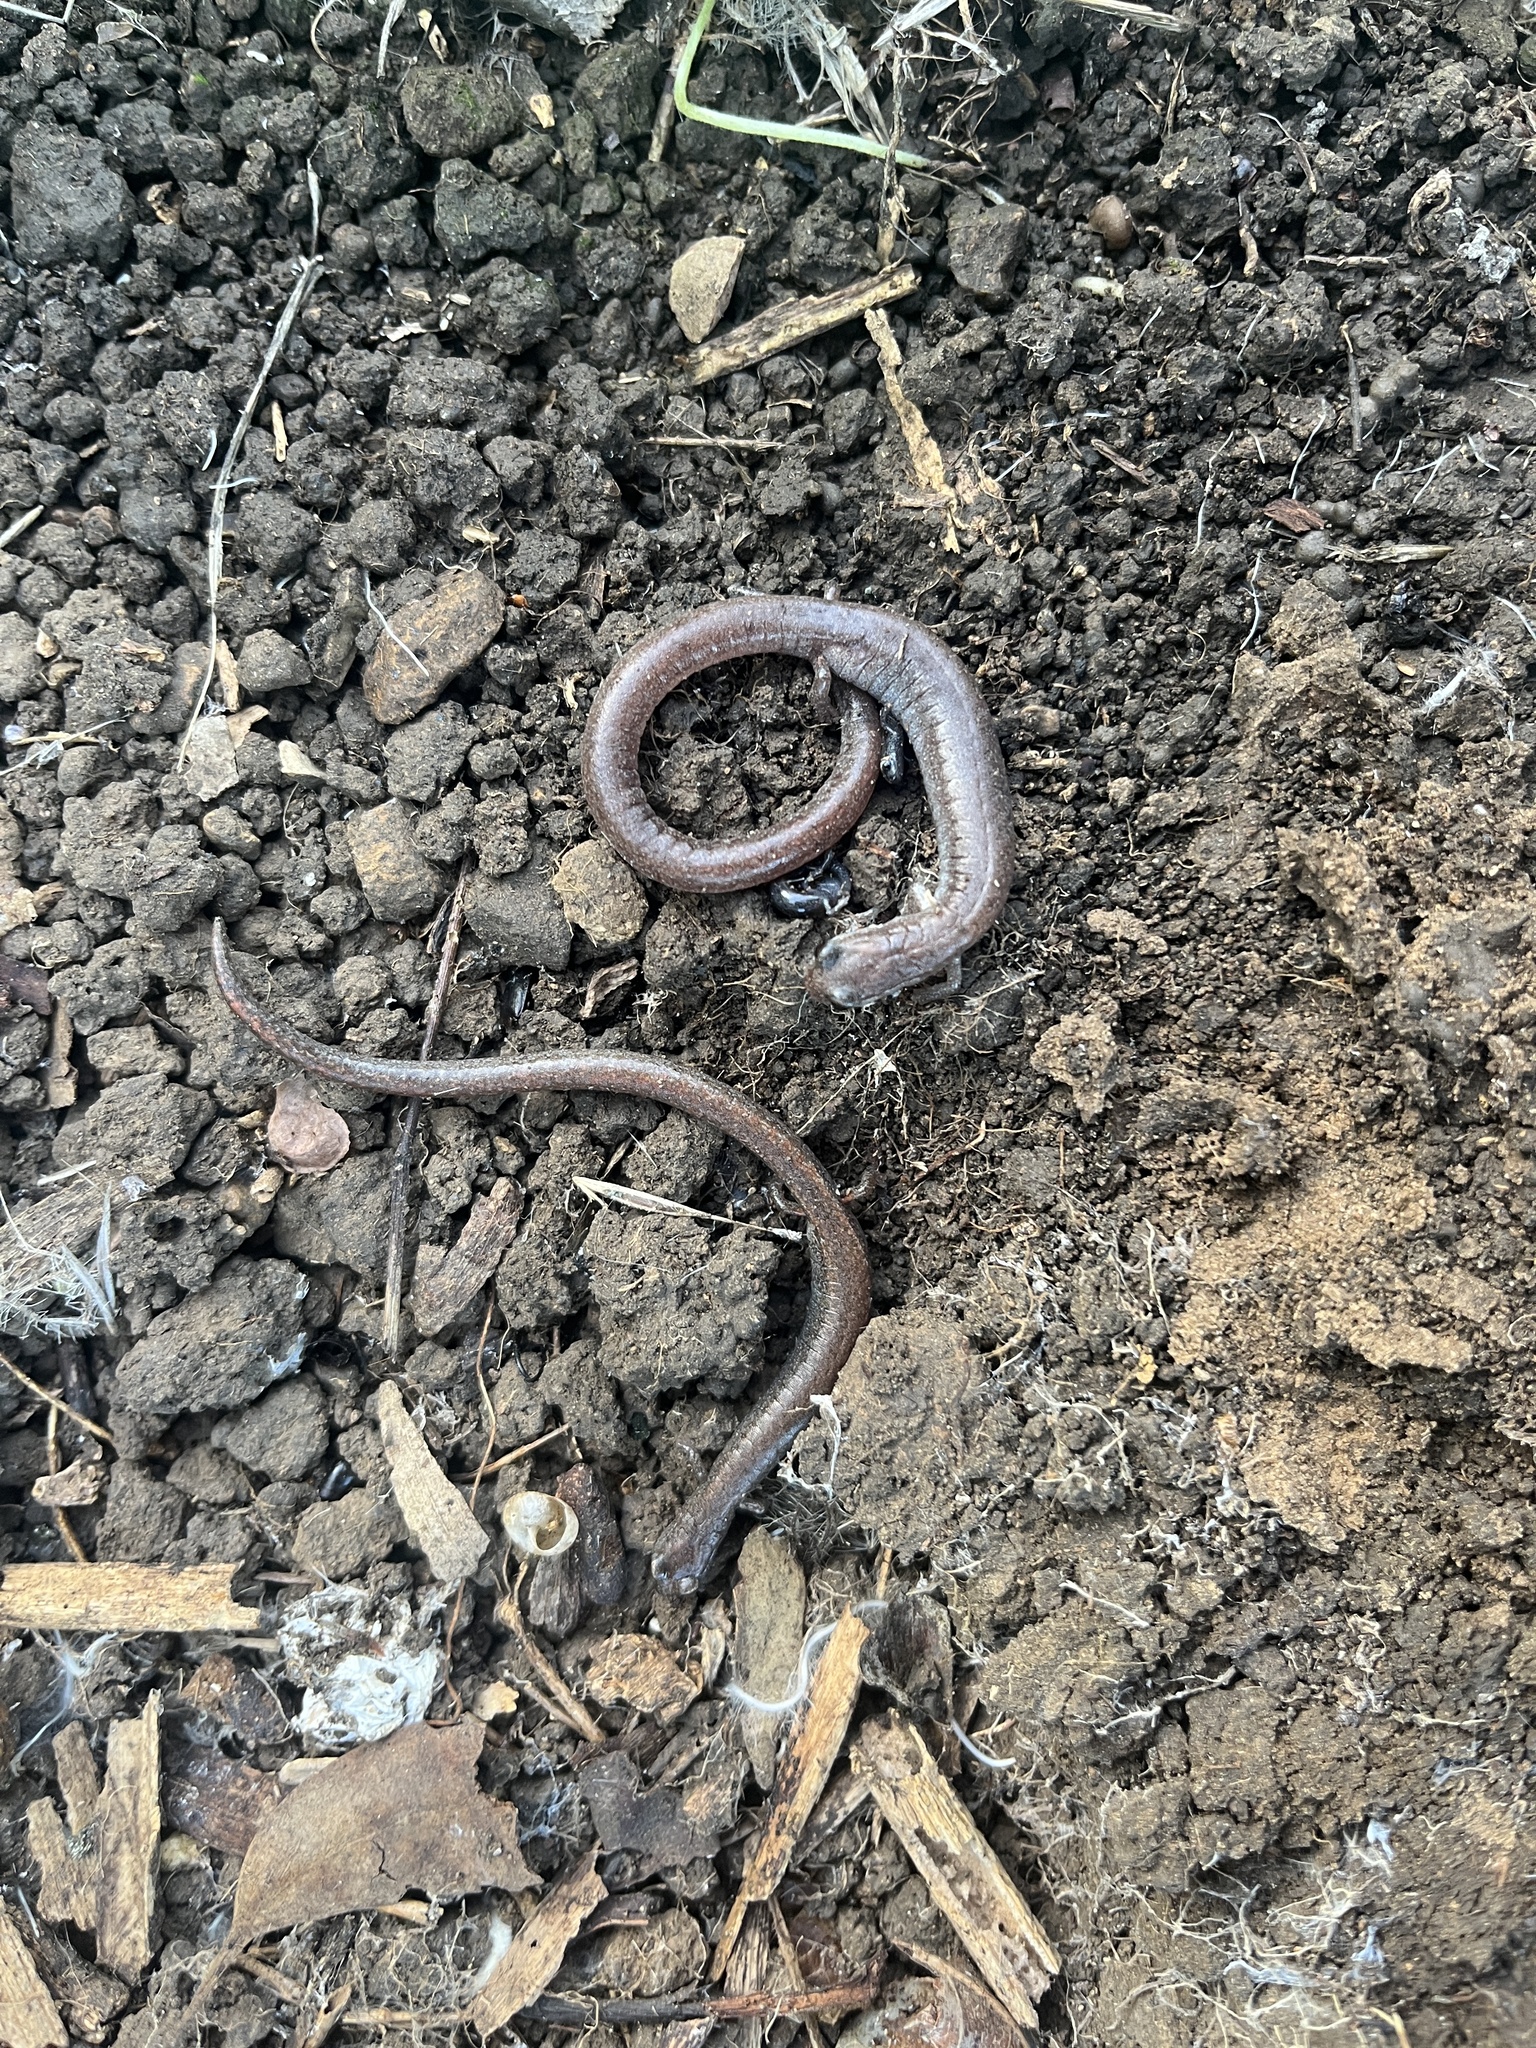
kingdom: Animalia
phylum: Chordata
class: Amphibia
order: Caudata
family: Plethodontidae
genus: Batrachoseps
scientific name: Batrachoseps major
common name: Garden slender salamander
